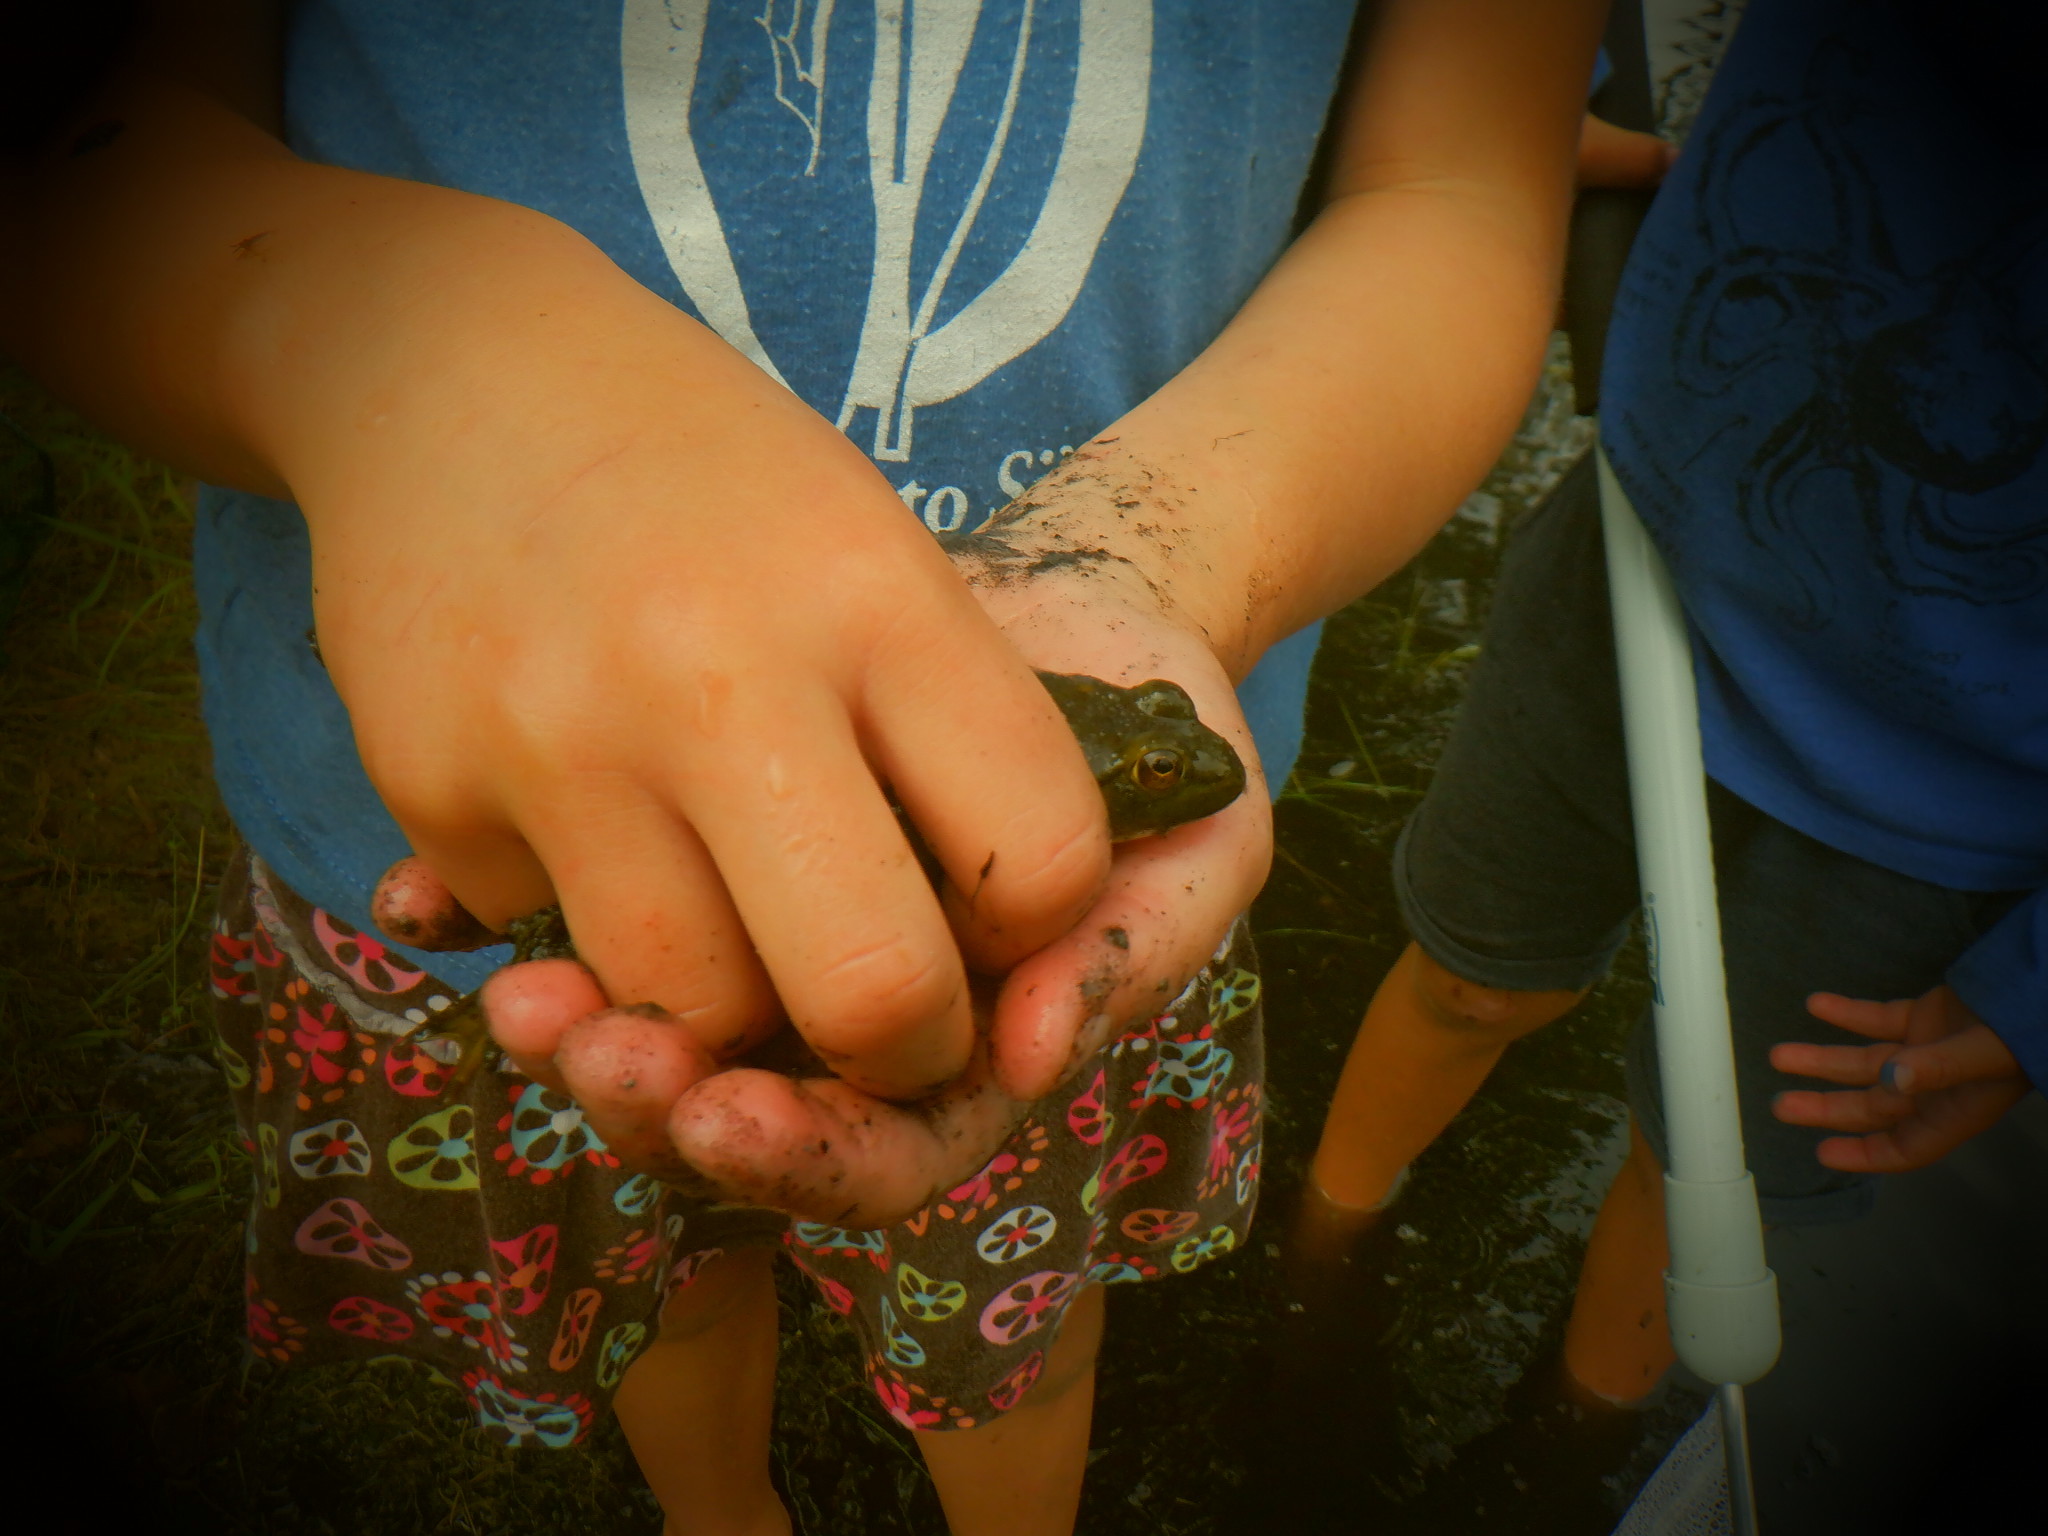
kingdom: Animalia
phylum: Chordata
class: Amphibia
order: Anura
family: Ranidae
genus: Lithobates
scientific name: Lithobates catesbeianus
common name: American bullfrog
